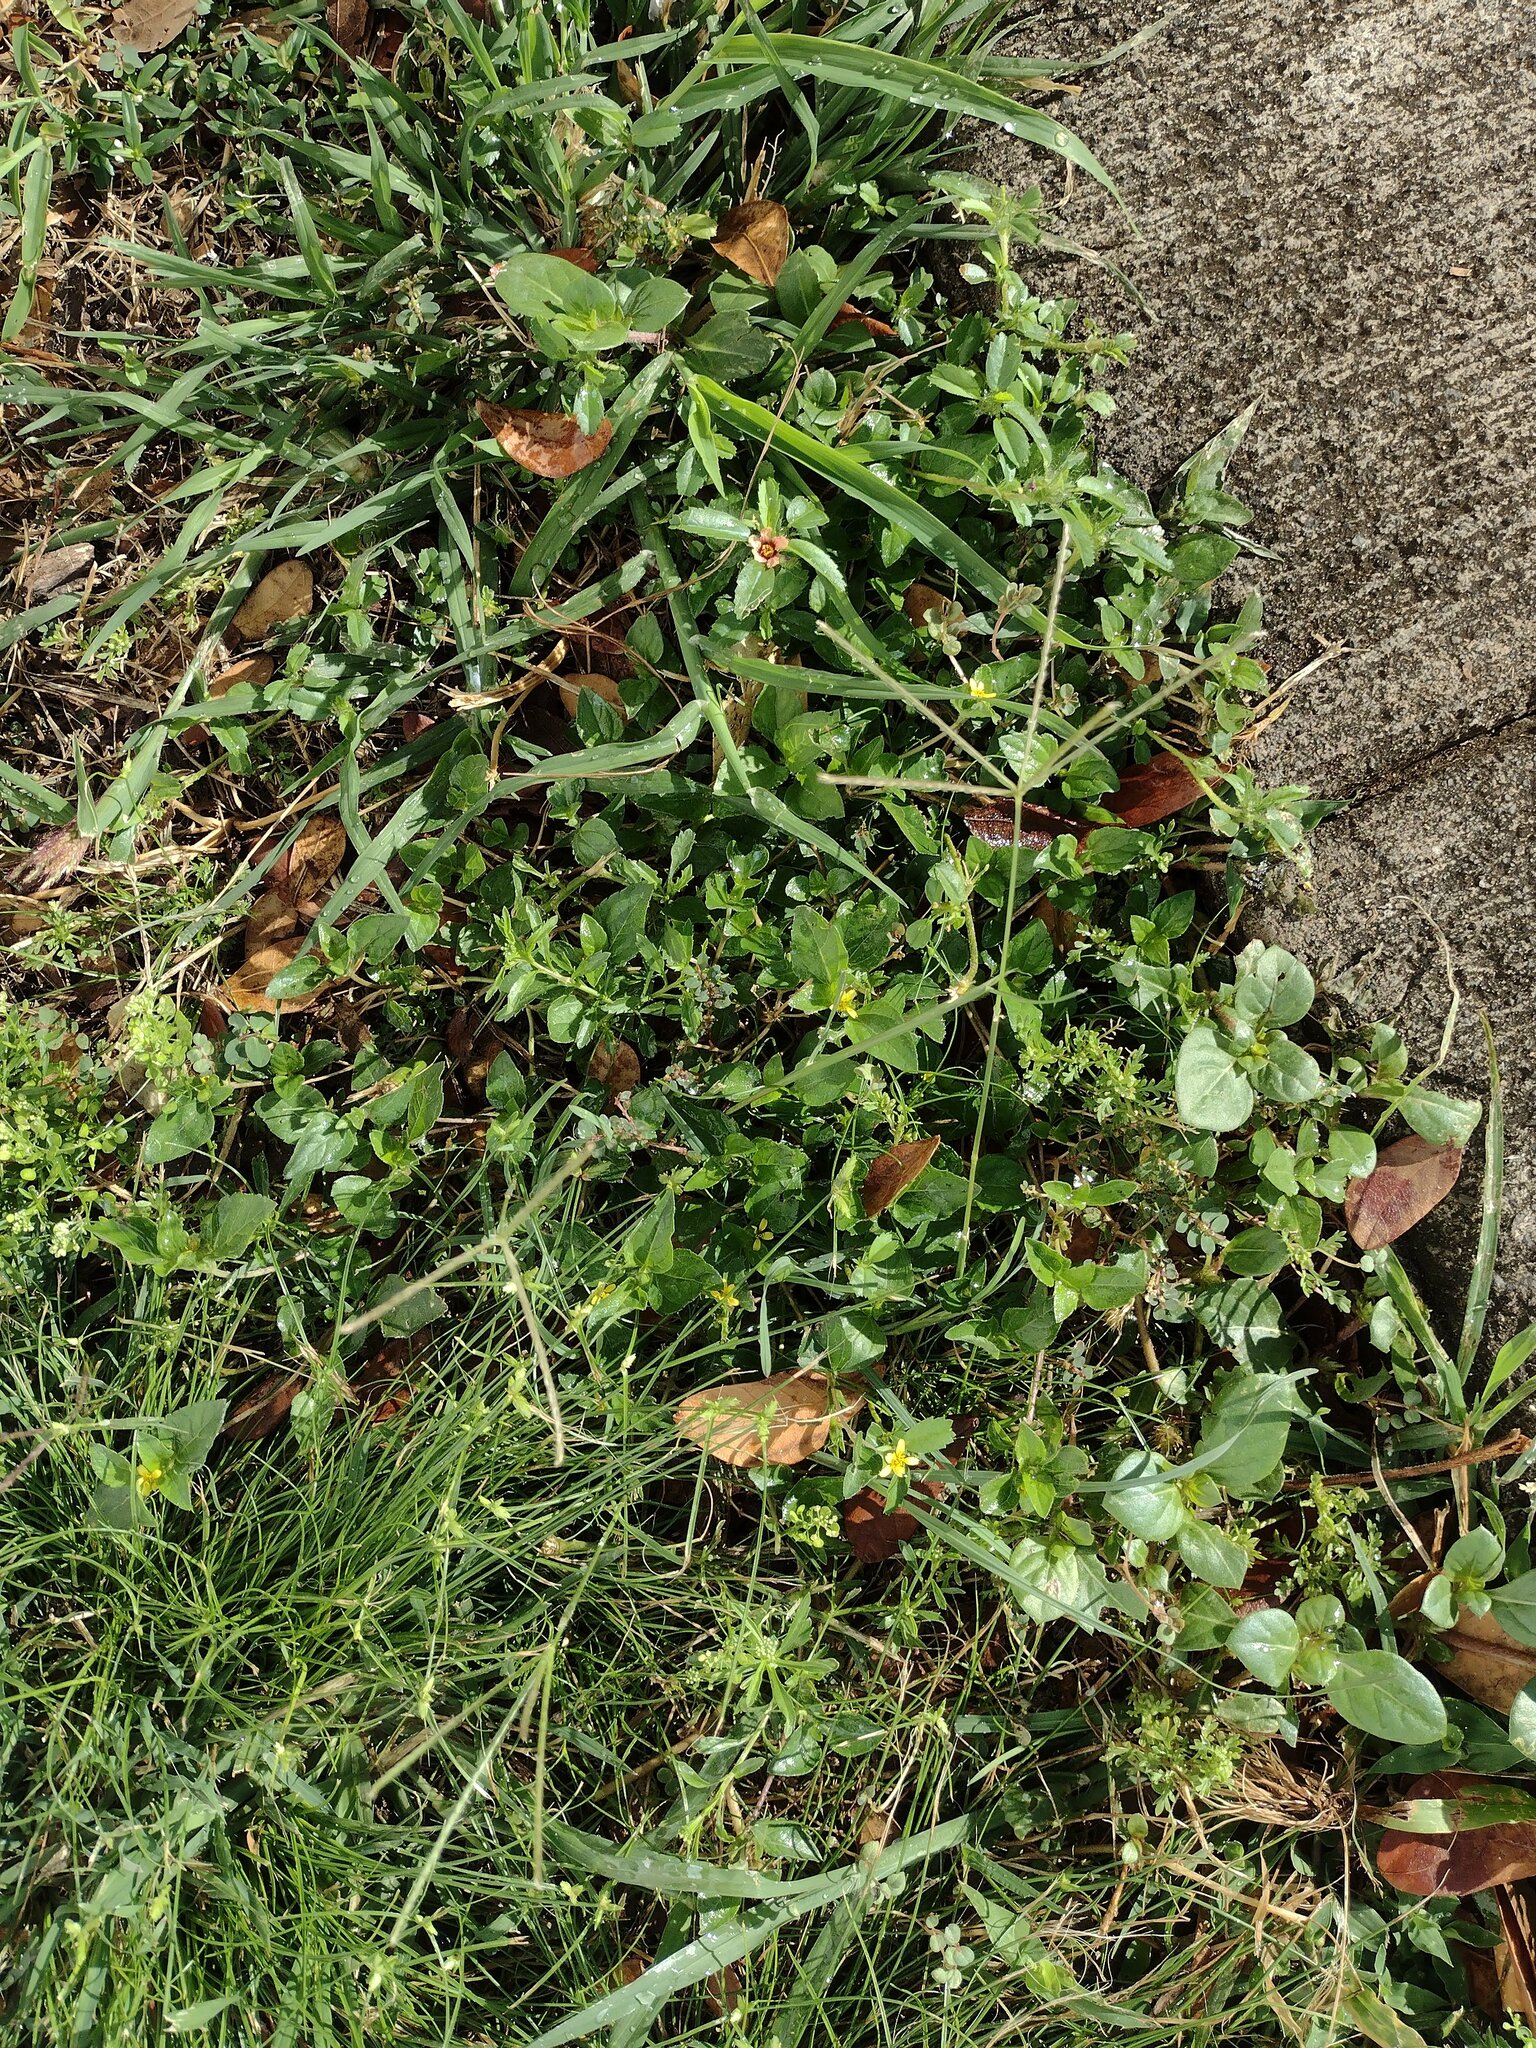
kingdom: Plantae
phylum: Tracheophyta
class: Liliopsida
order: Poales
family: Poaceae
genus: Cynodon
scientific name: Cynodon dactylon
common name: Bermuda grass
